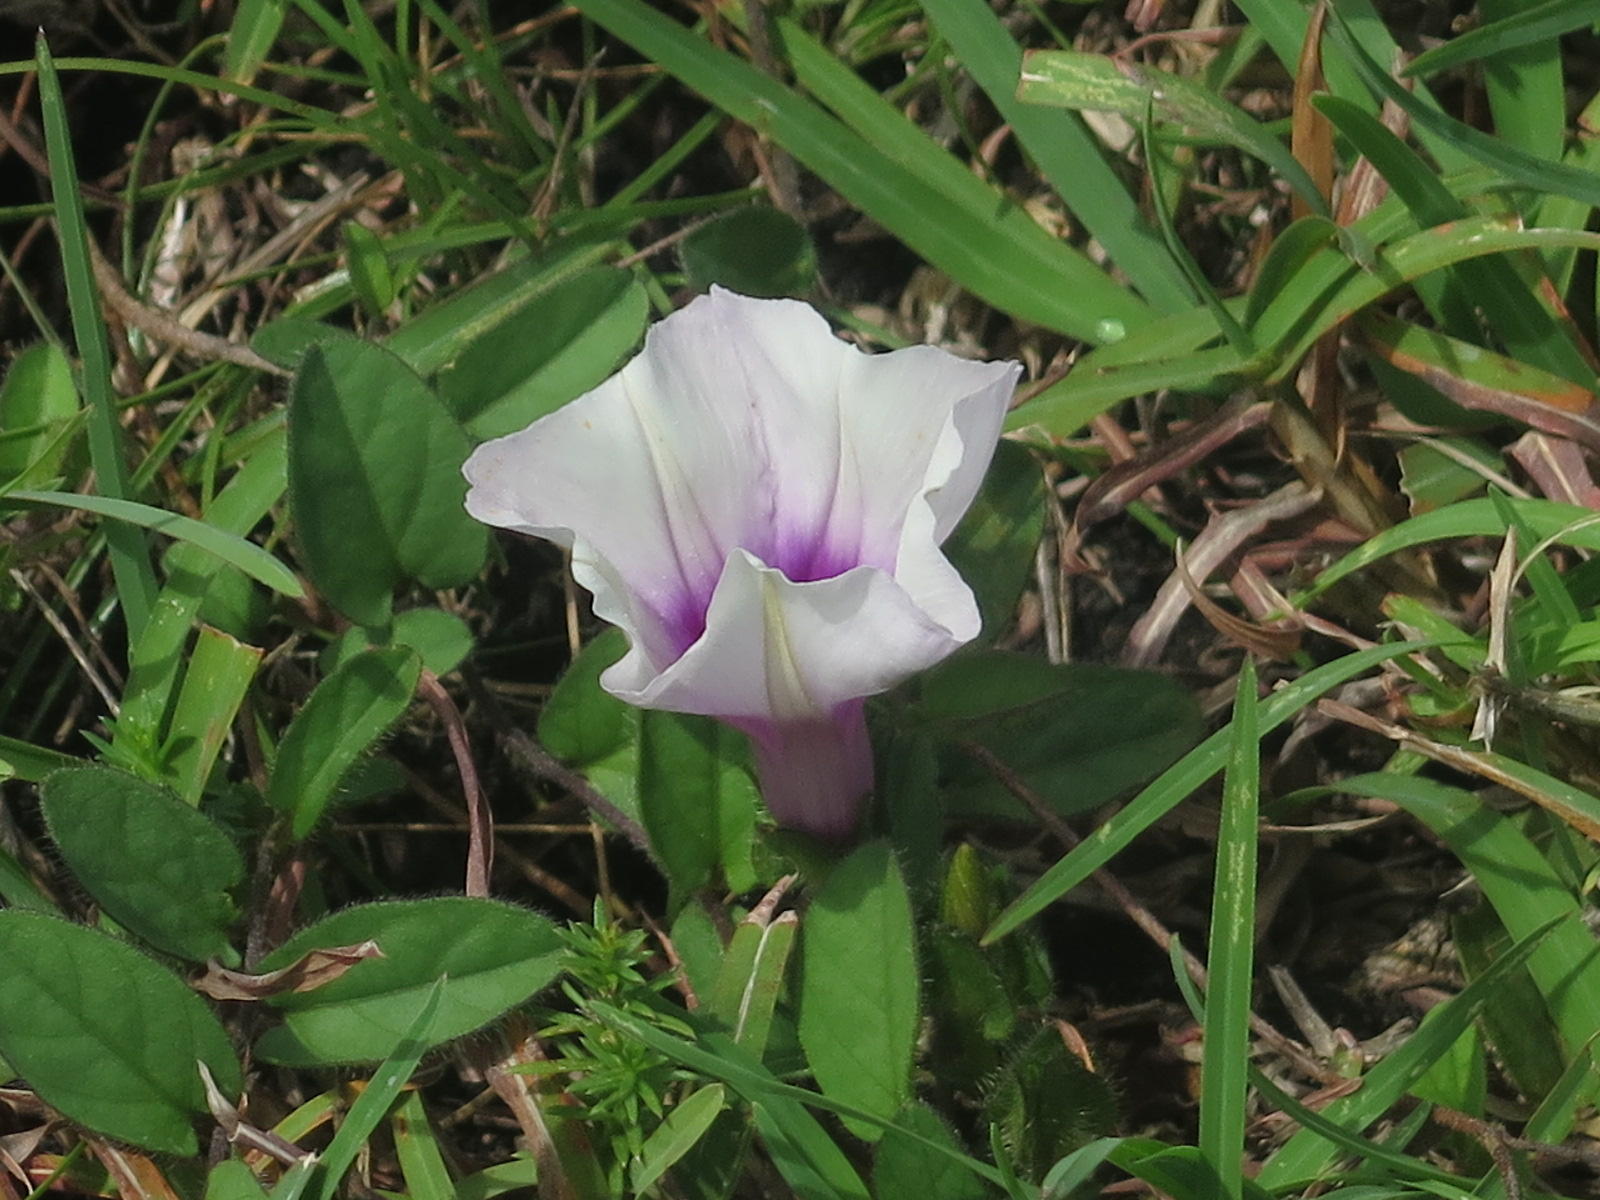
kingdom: Plantae
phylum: Tracheophyta
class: Magnoliopsida
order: Solanales
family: Convolvulaceae
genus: Ipomoea
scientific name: Ipomoea crassipes
